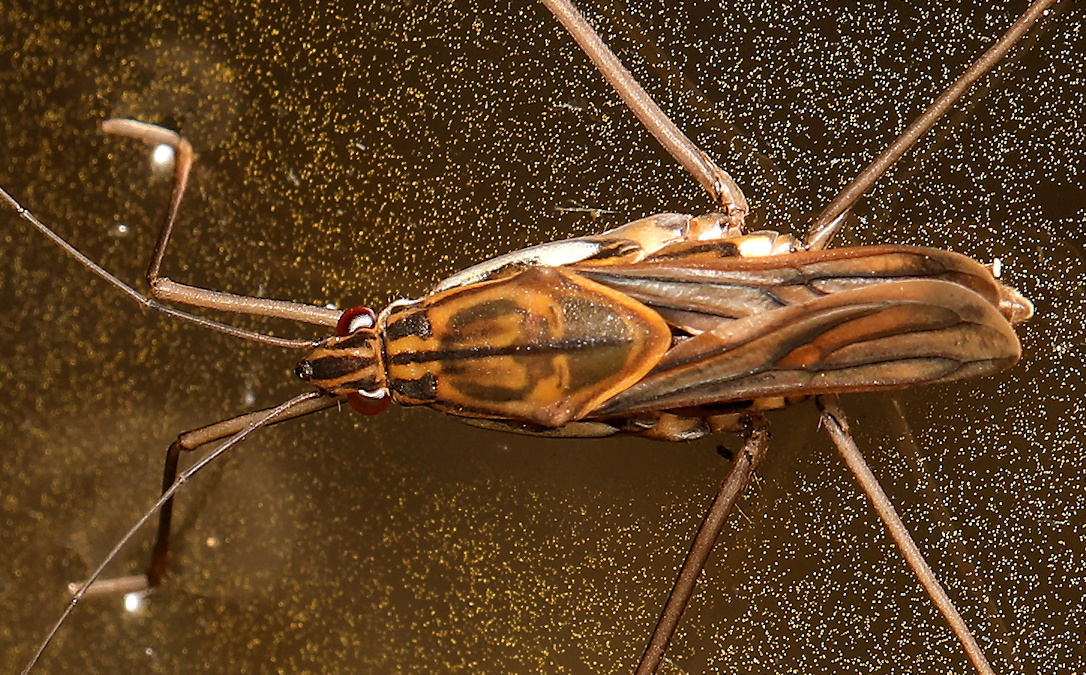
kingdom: Animalia
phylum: Arthropoda
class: Insecta
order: Hemiptera
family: Gerridae
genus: Tenagogonus
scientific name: Tenagogonus zambezinus
